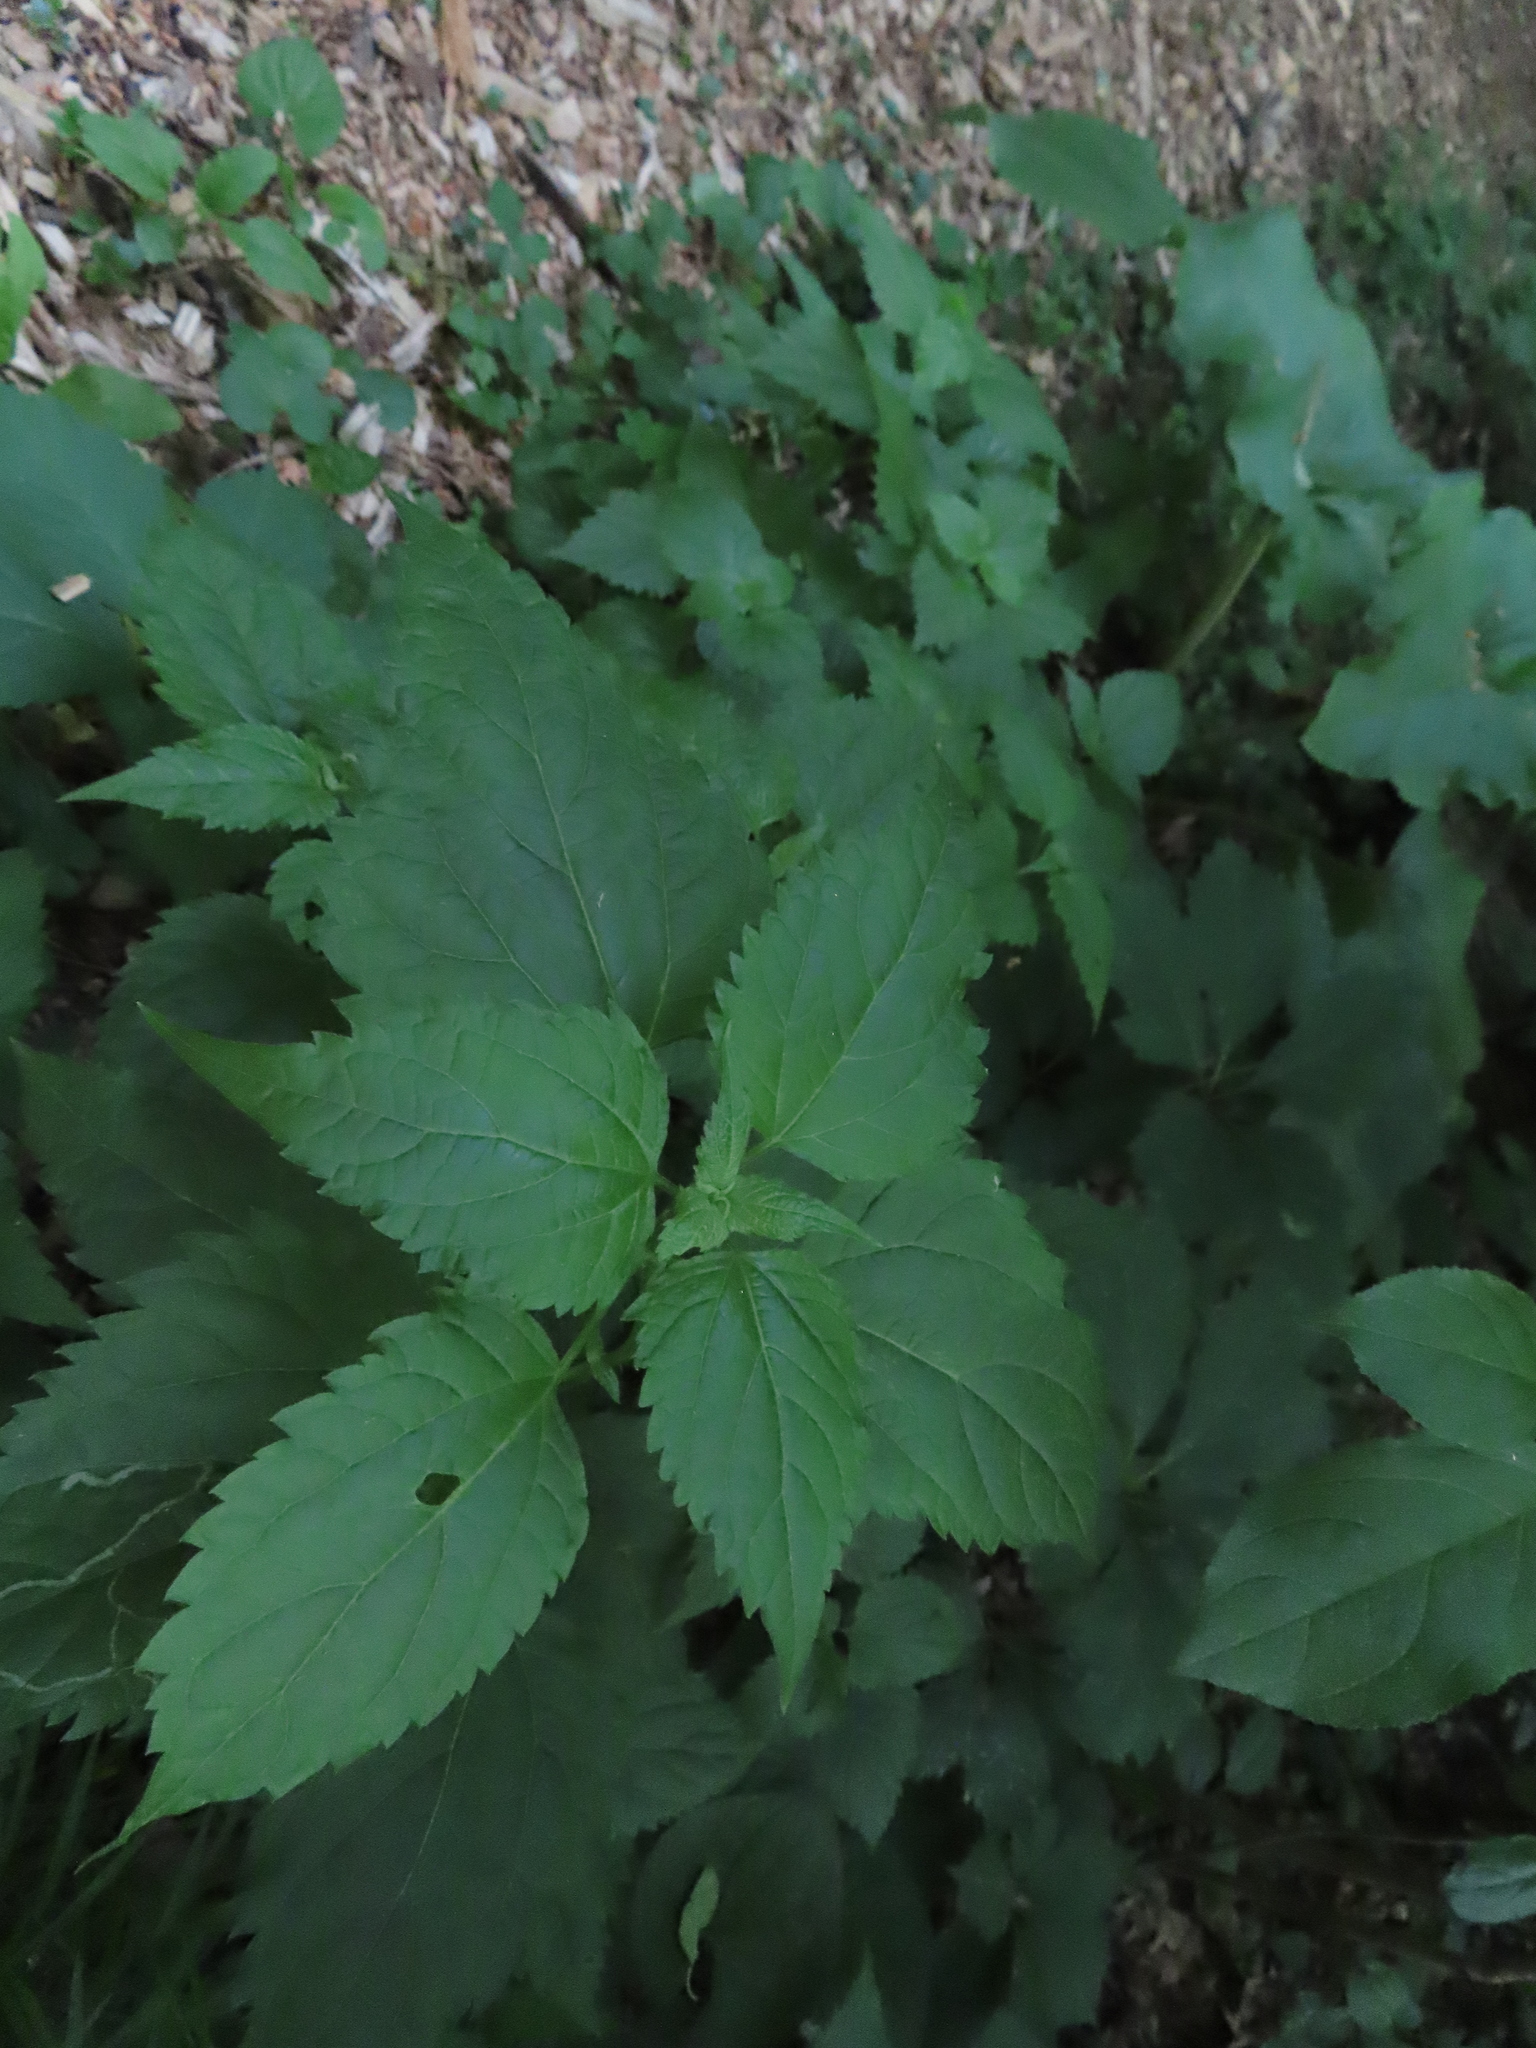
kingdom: Plantae
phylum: Tracheophyta
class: Magnoliopsida
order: Asterales
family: Asteraceae
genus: Ageratina
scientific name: Ageratina altissima
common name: White snakeroot
